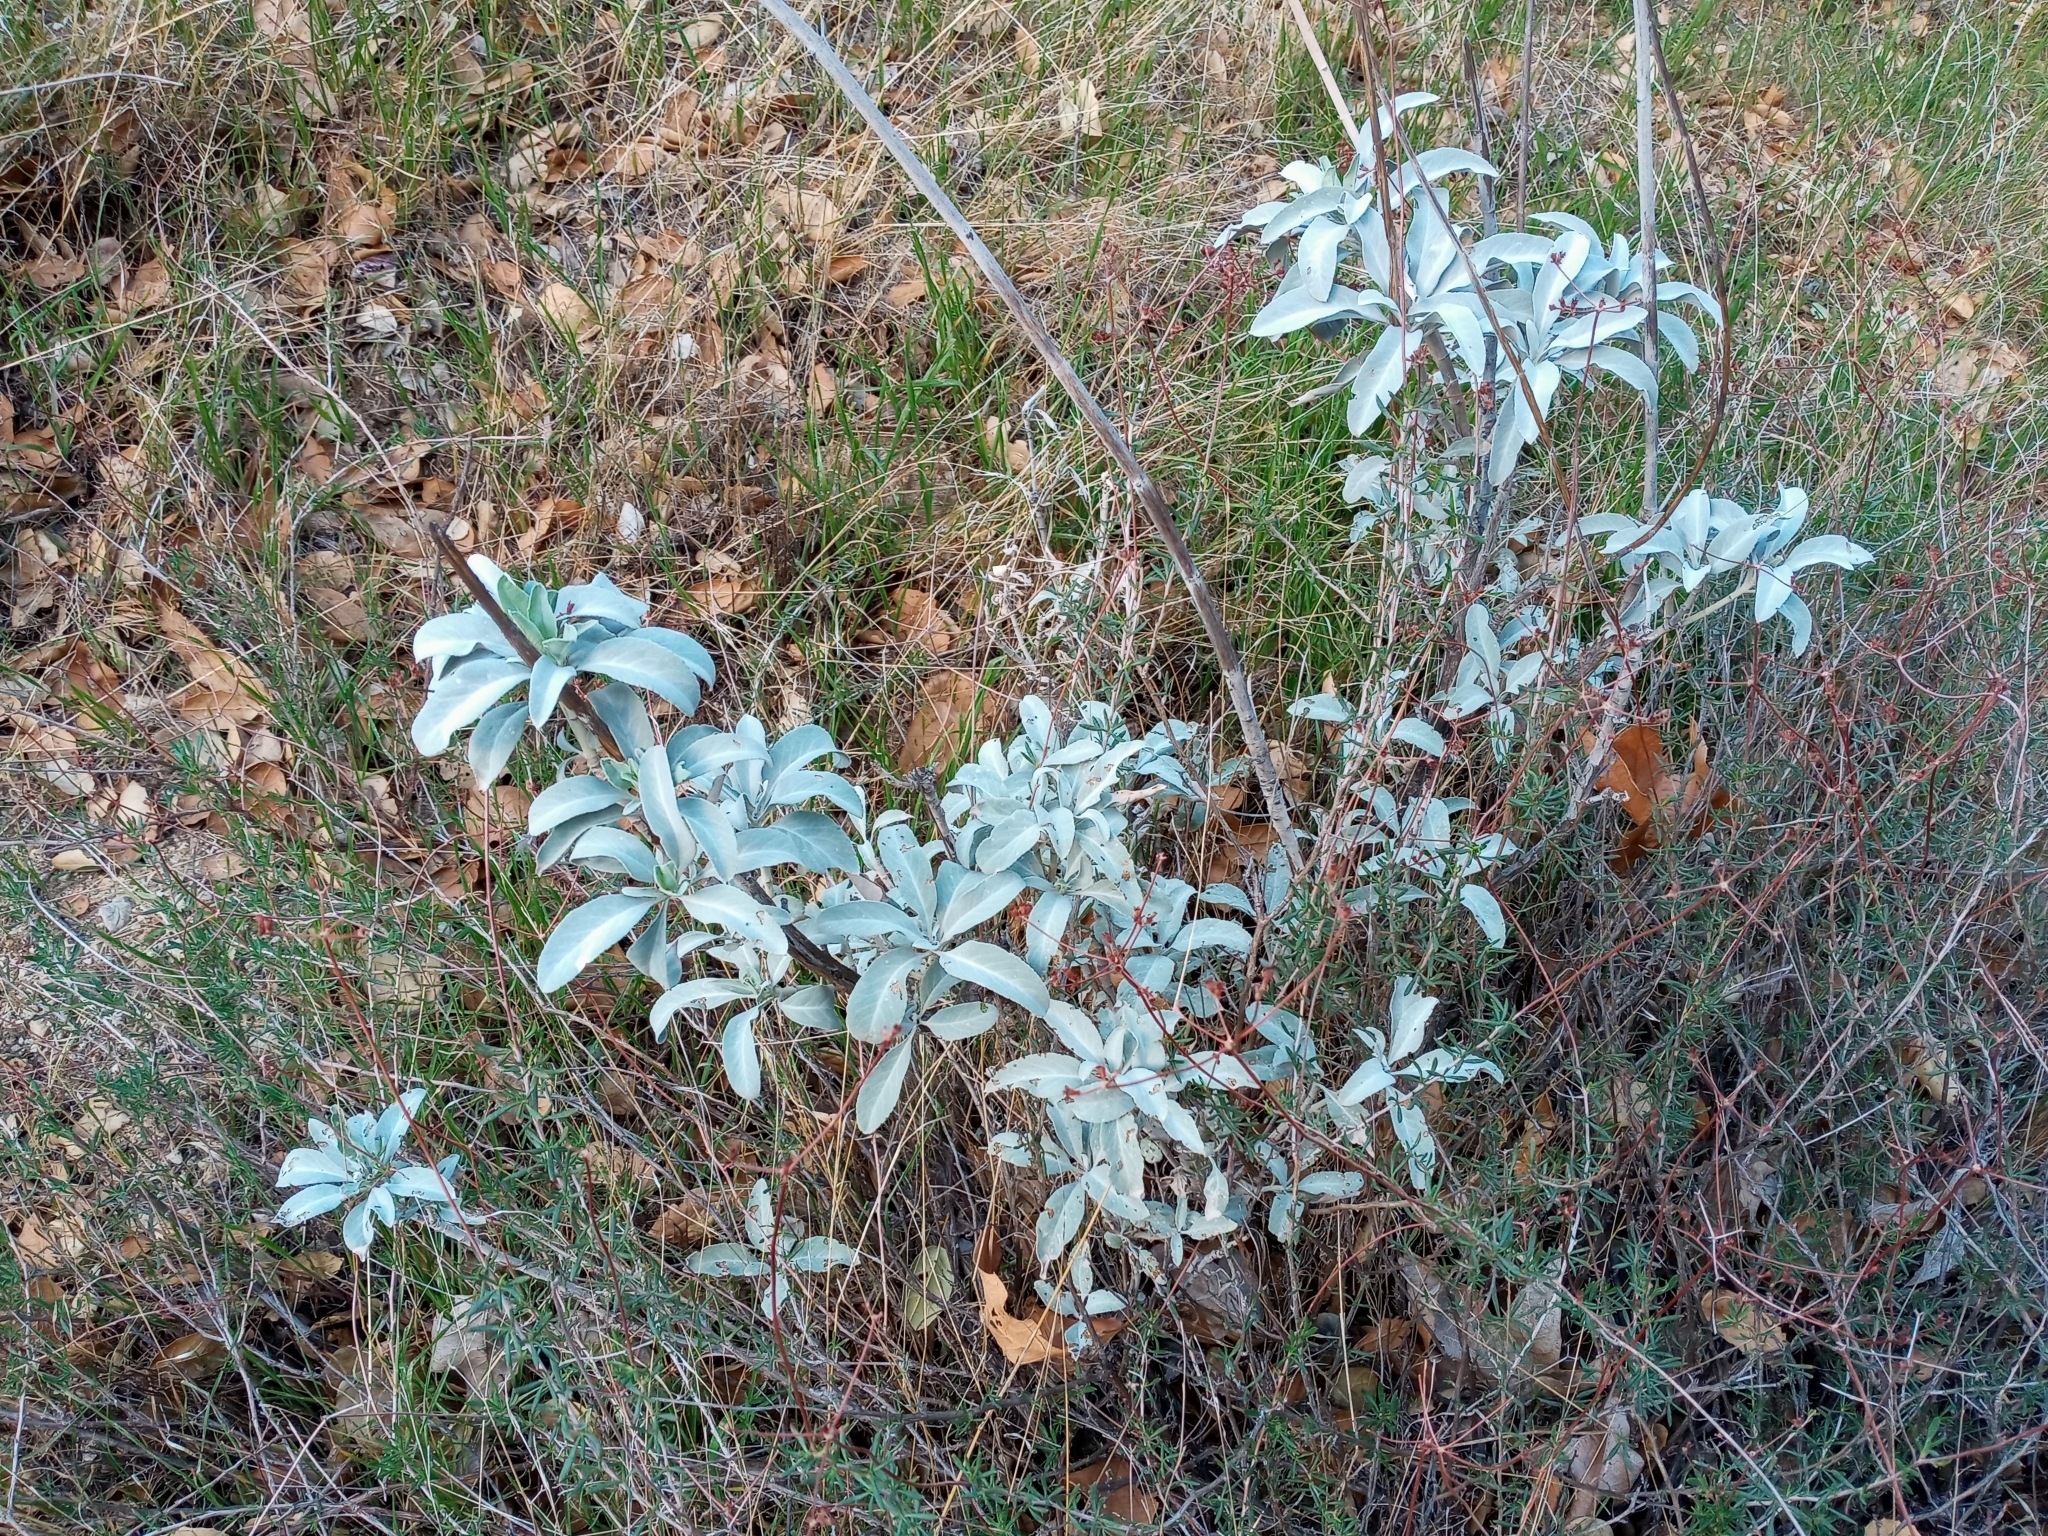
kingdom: Plantae
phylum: Tracheophyta
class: Magnoliopsida
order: Lamiales
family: Lamiaceae
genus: Salvia
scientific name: Salvia apiana
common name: White sage
